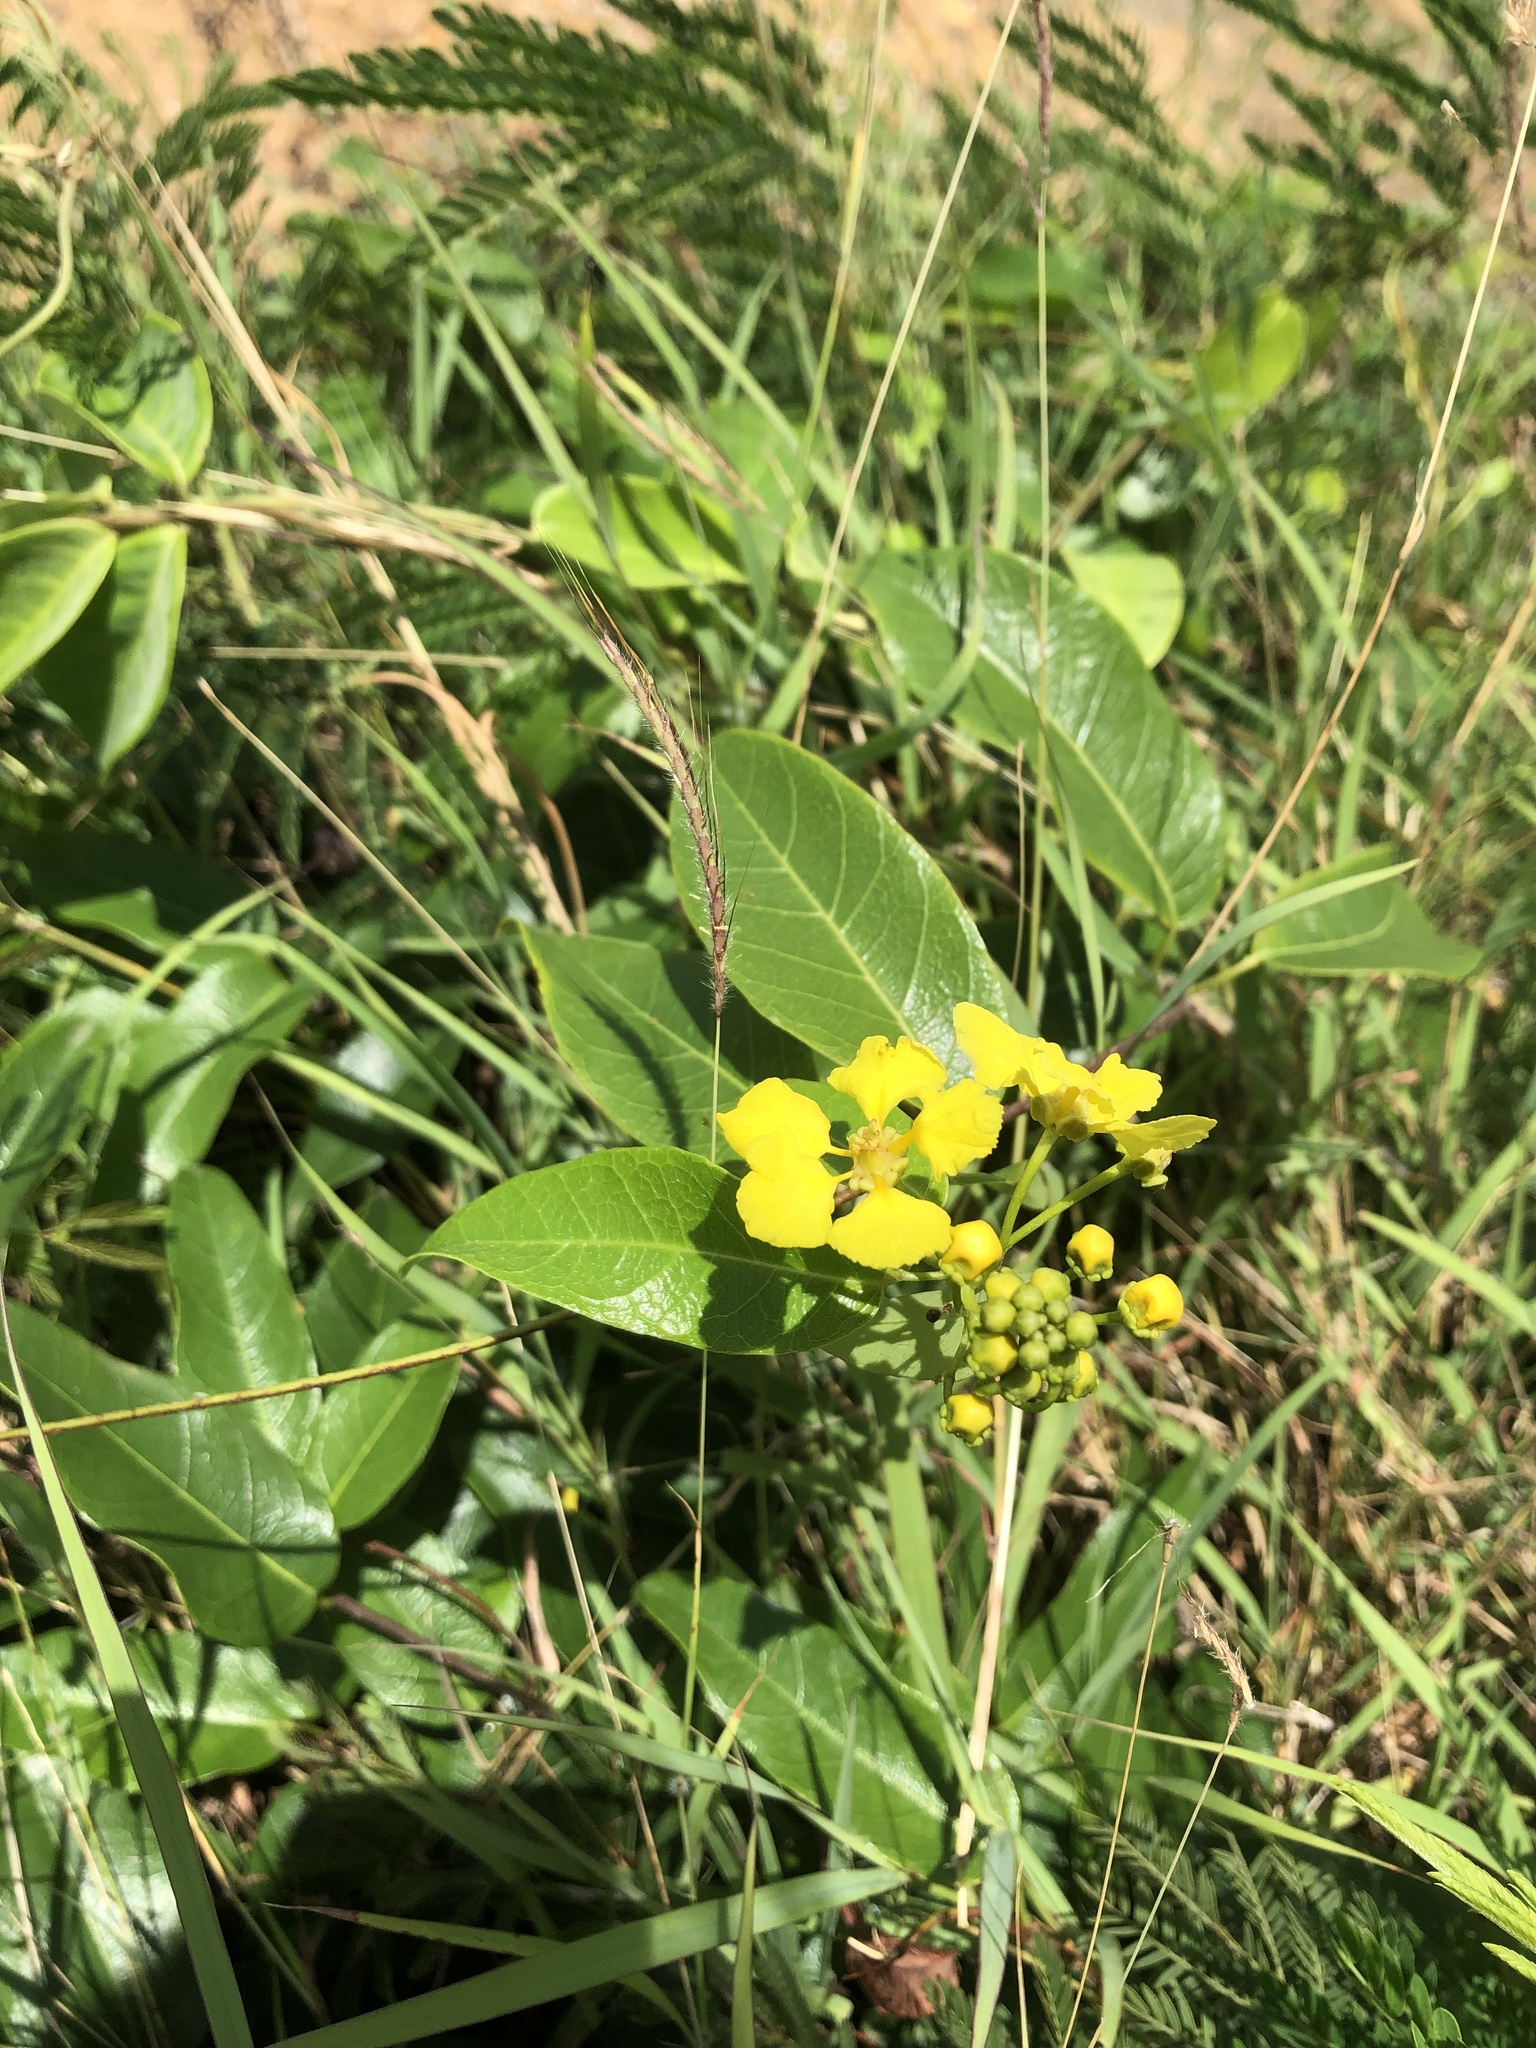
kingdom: Plantae
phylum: Tracheophyta
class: Magnoliopsida
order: Malpighiales
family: Malpighiaceae
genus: Stigmaphyllon
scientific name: Stigmaphyllon emarginatum
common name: Monarch amazonvine
